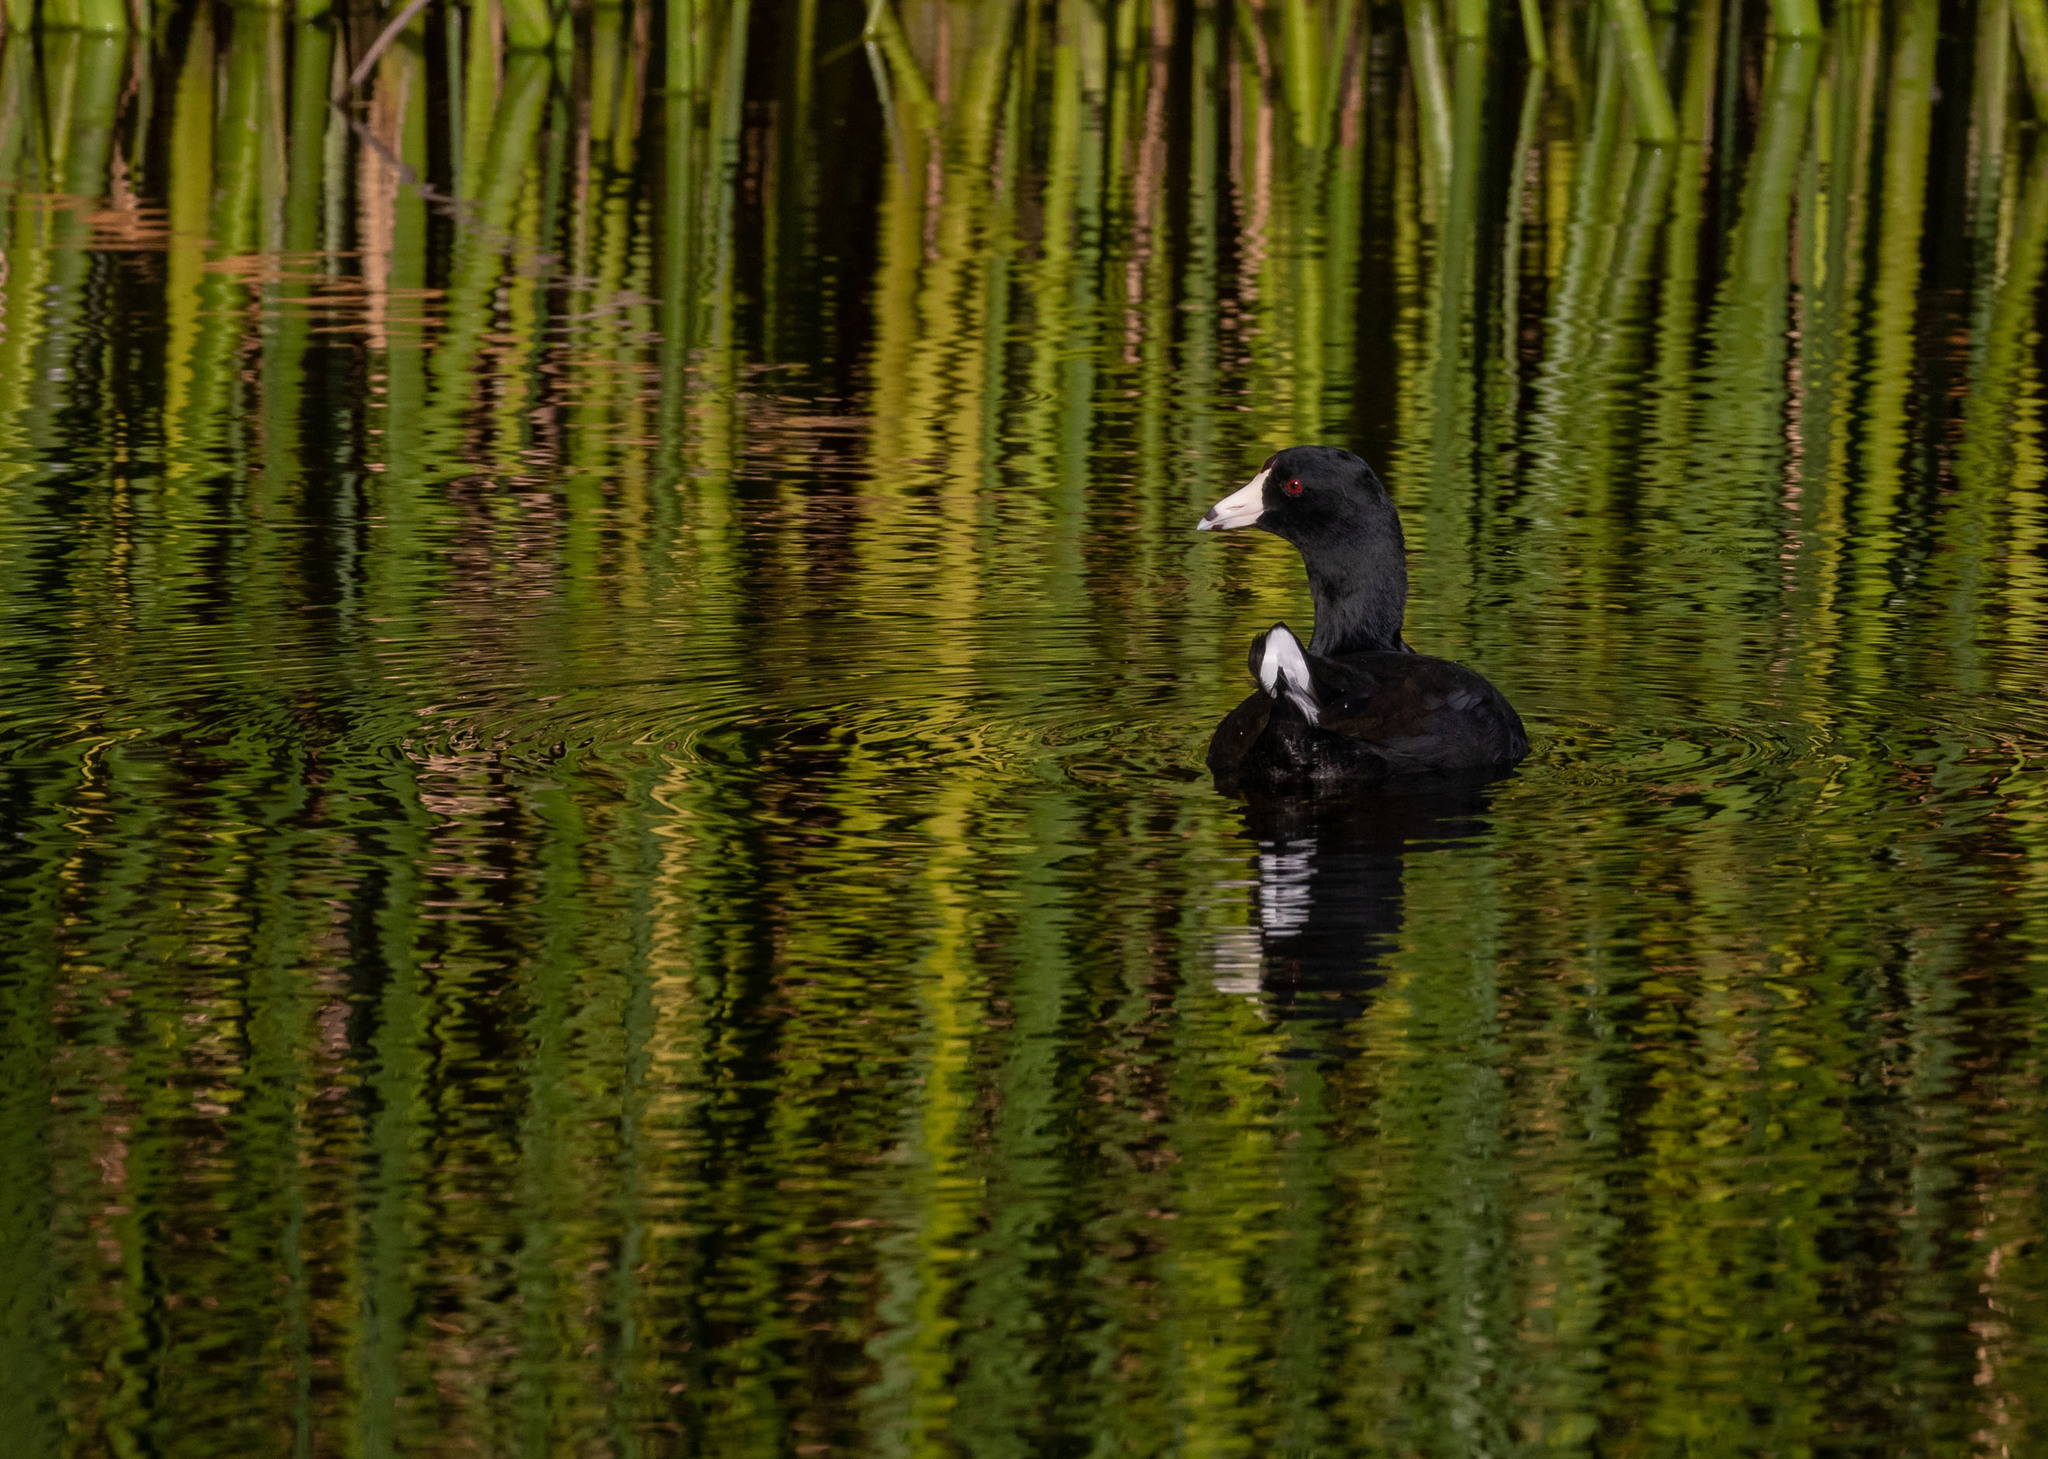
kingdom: Animalia
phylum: Chordata
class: Aves
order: Gruiformes
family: Rallidae
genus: Fulica
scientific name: Fulica americana
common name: American coot
